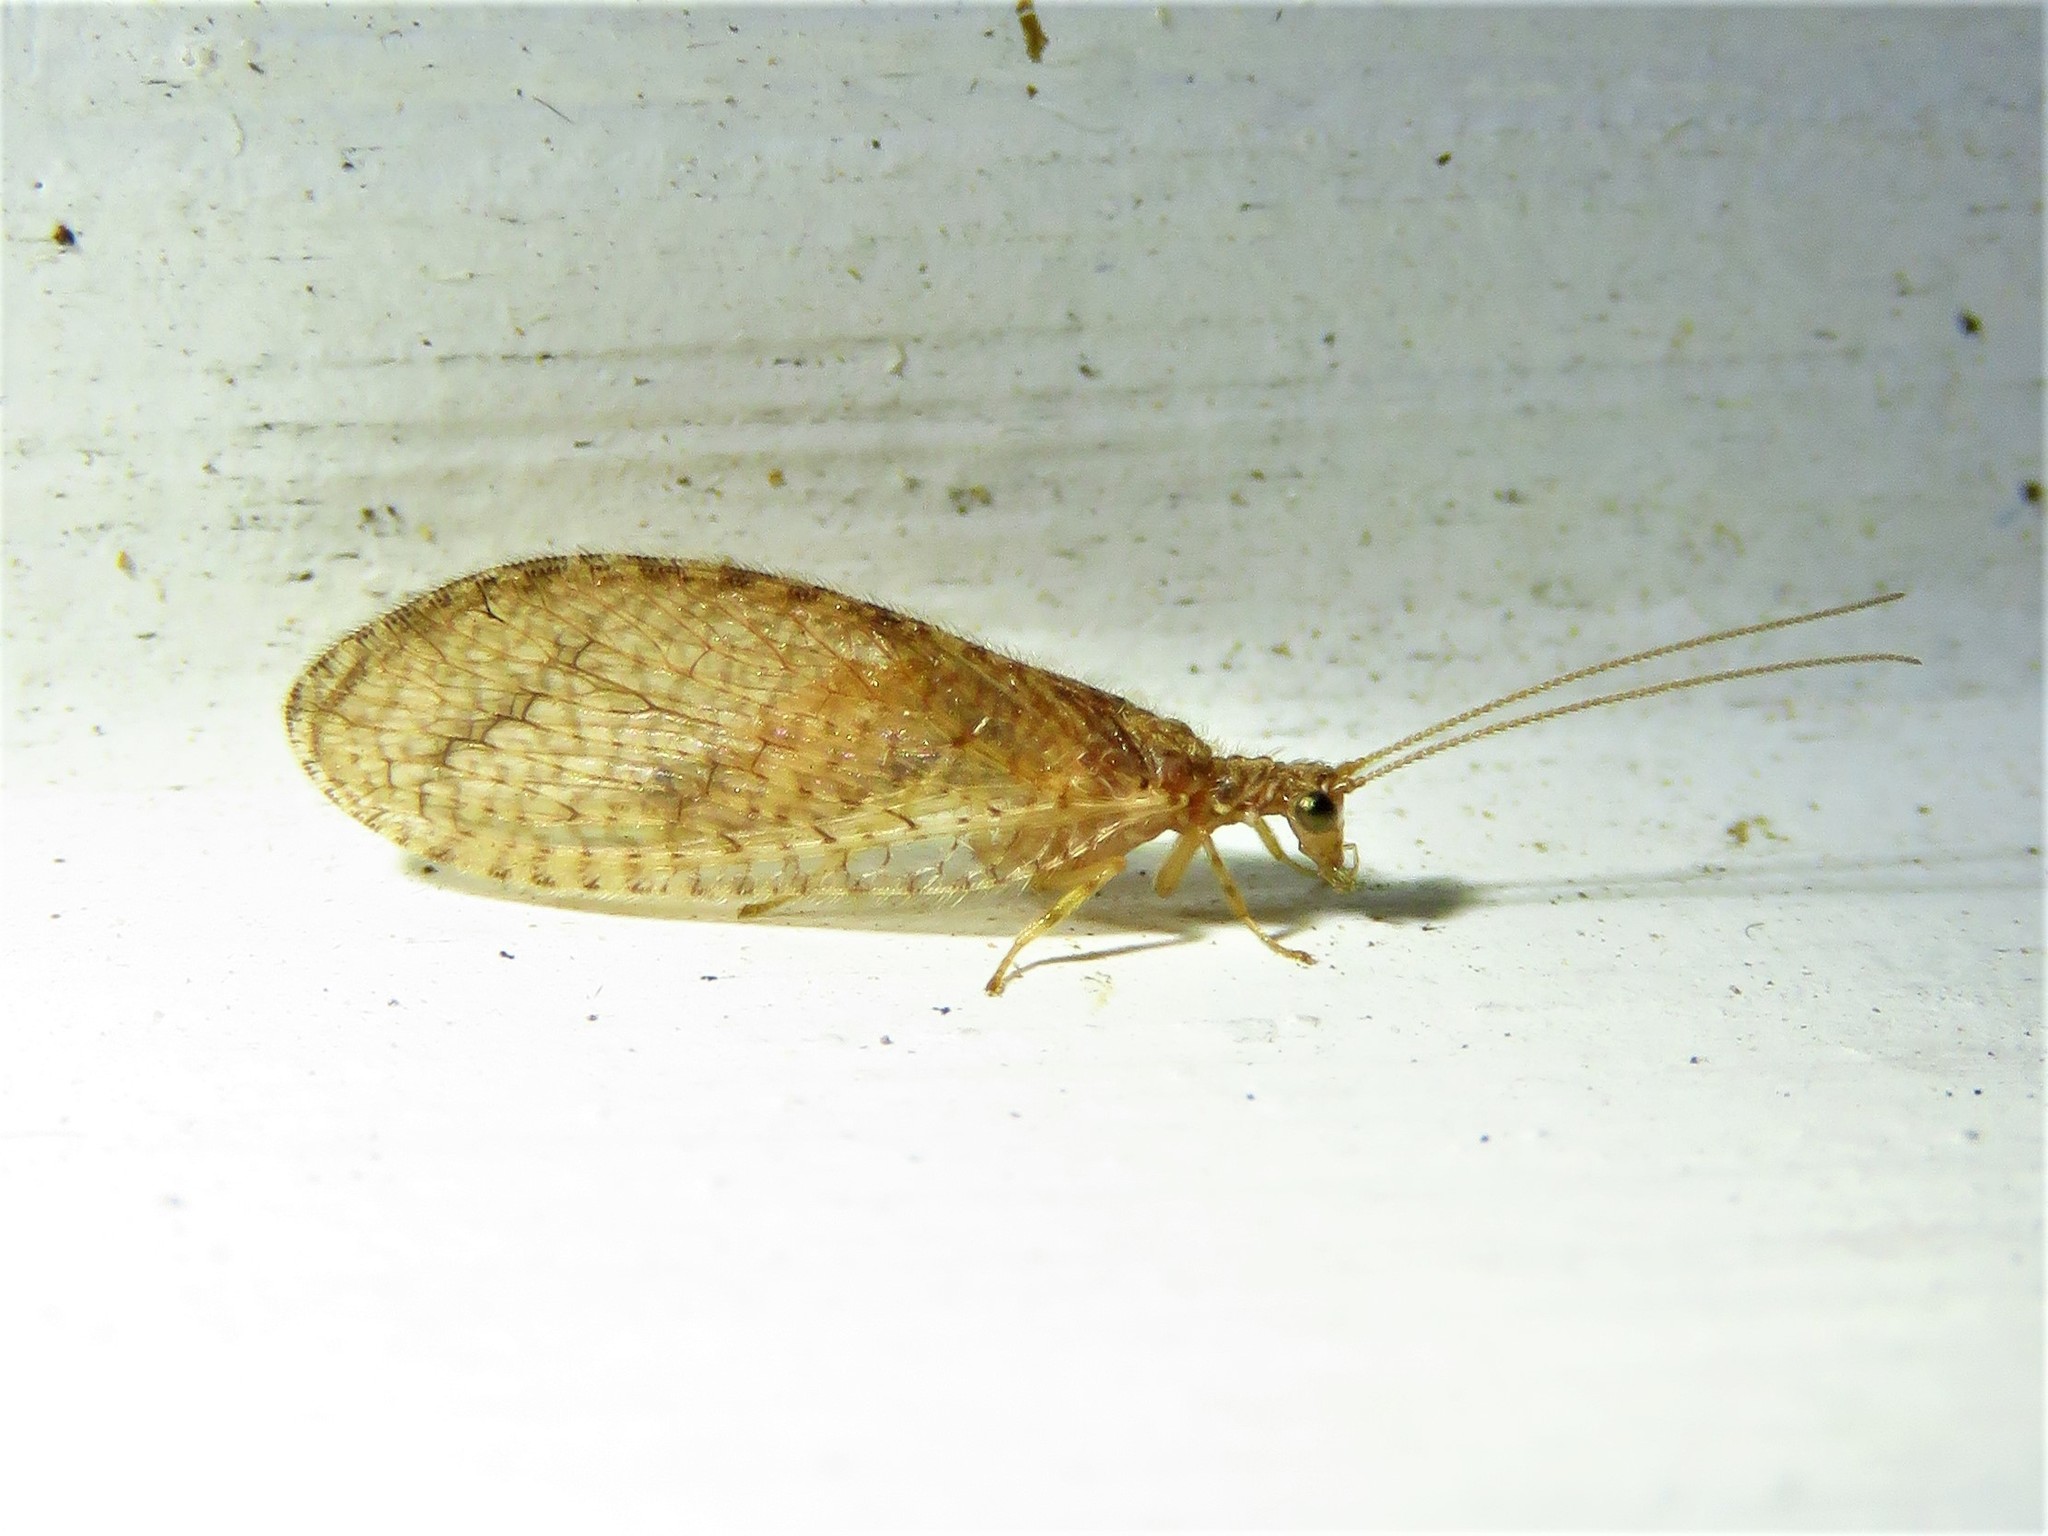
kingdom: Animalia
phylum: Arthropoda
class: Insecta
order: Neuroptera
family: Hemerobiidae
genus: Micromus
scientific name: Micromus posticus
